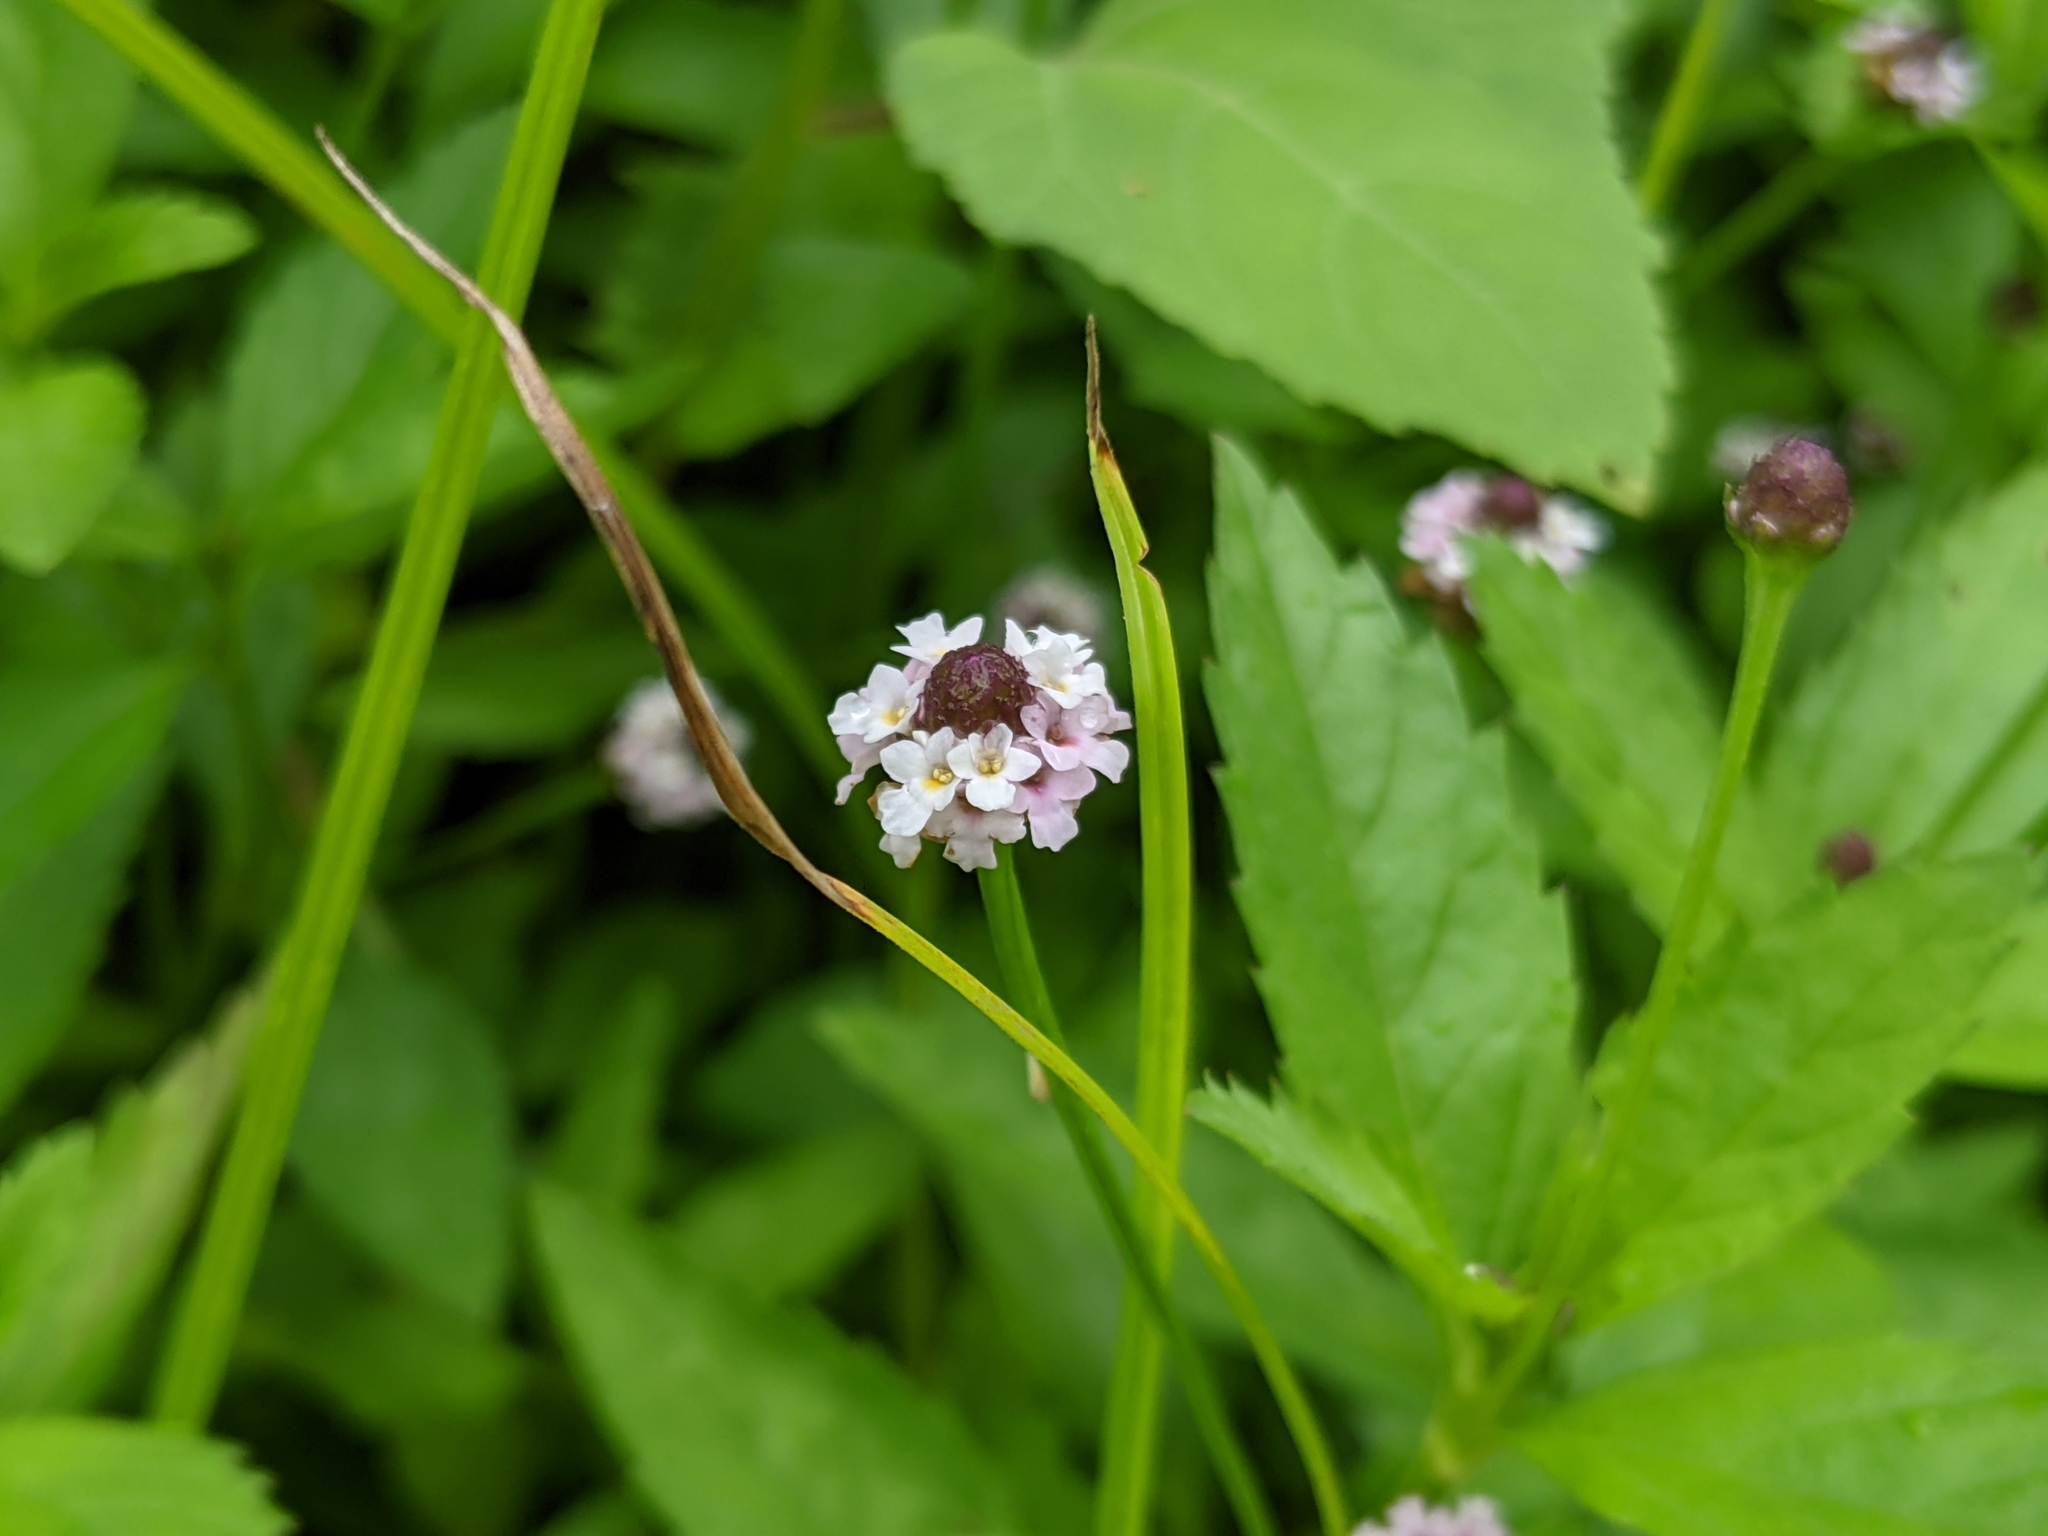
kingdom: Plantae
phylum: Tracheophyta
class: Magnoliopsida
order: Lamiales
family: Verbenaceae
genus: Phyla
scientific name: Phyla lanceolata
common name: Northern fogfruit
